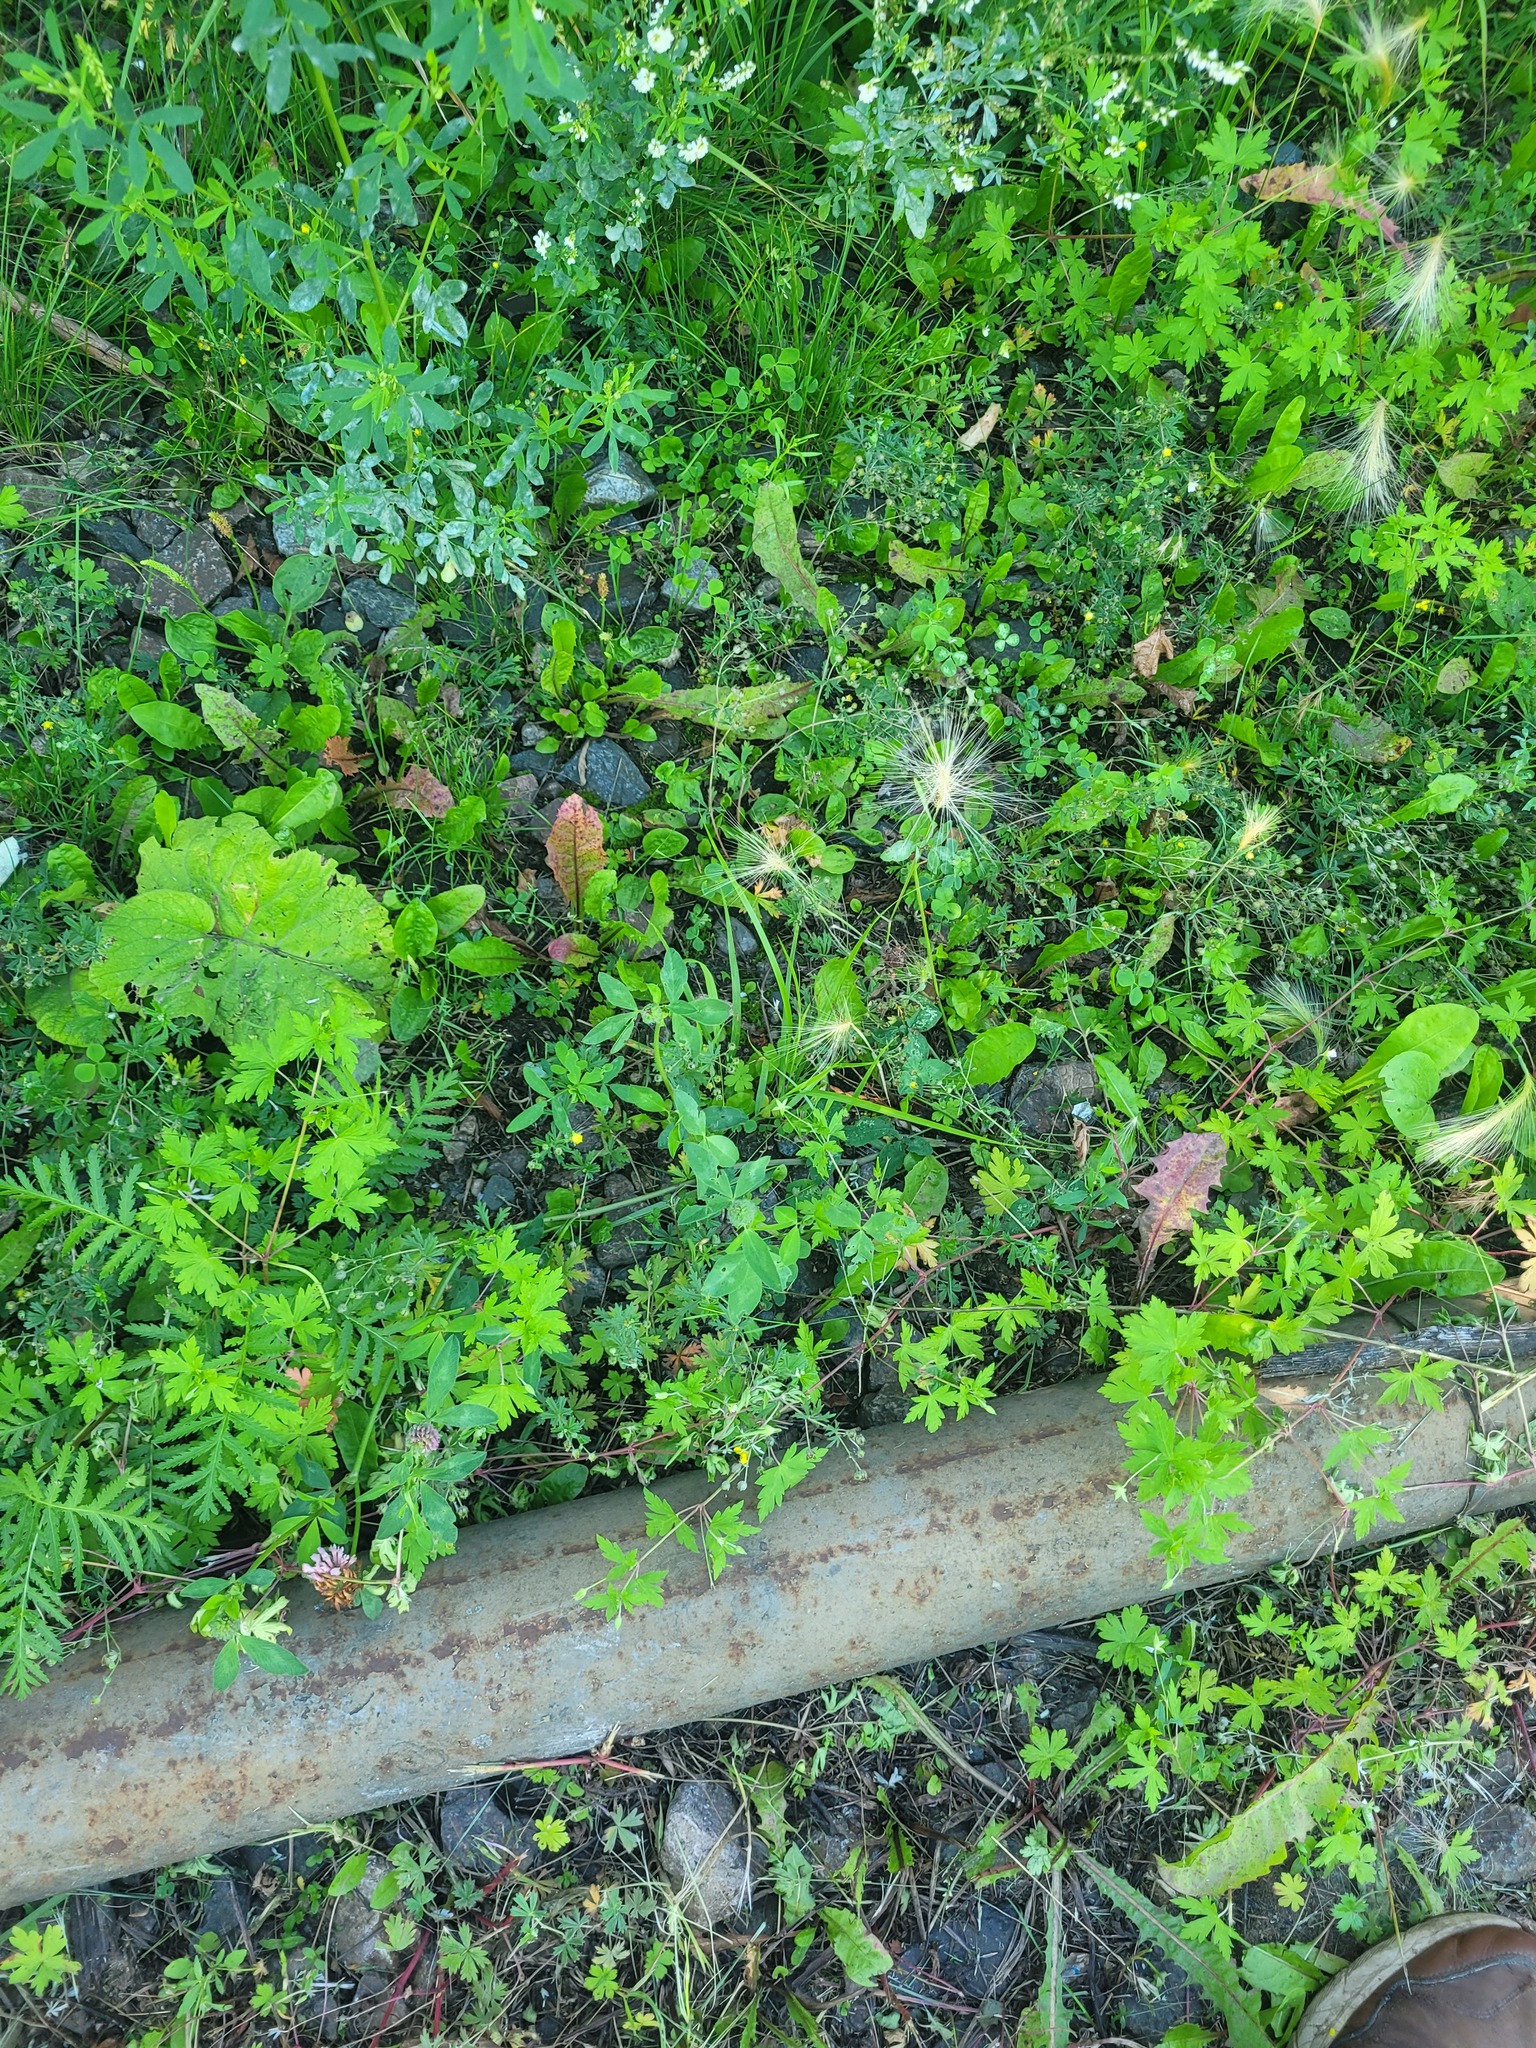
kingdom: Plantae
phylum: Tracheophyta
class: Magnoliopsida
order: Fabales
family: Fabaceae
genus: Trifolium
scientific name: Trifolium pratense
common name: Red clover
